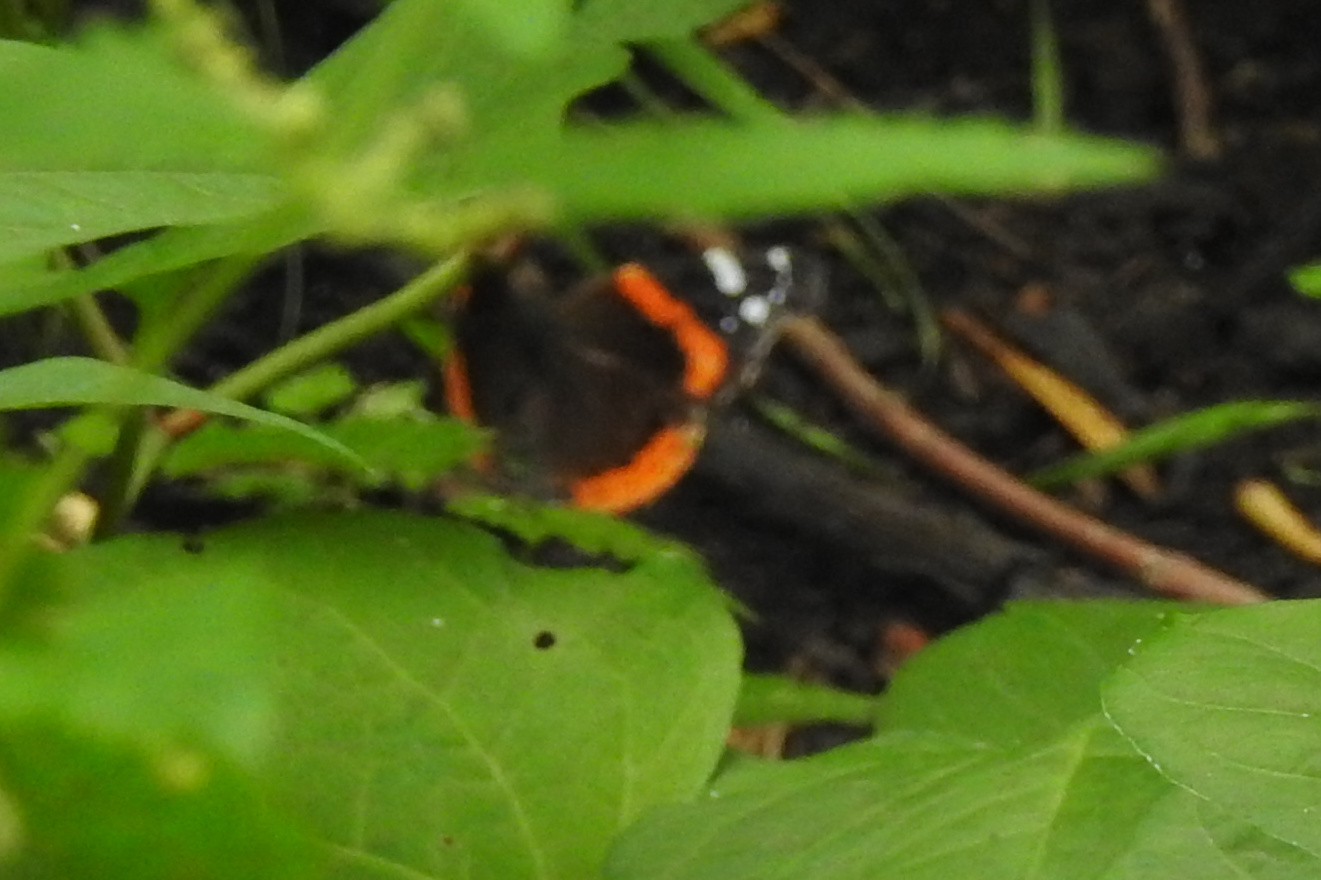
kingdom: Animalia
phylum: Arthropoda
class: Insecta
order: Lepidoptera
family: Nymphalidae
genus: Vanessa
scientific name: Vanessa atalanta
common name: Red admiral
